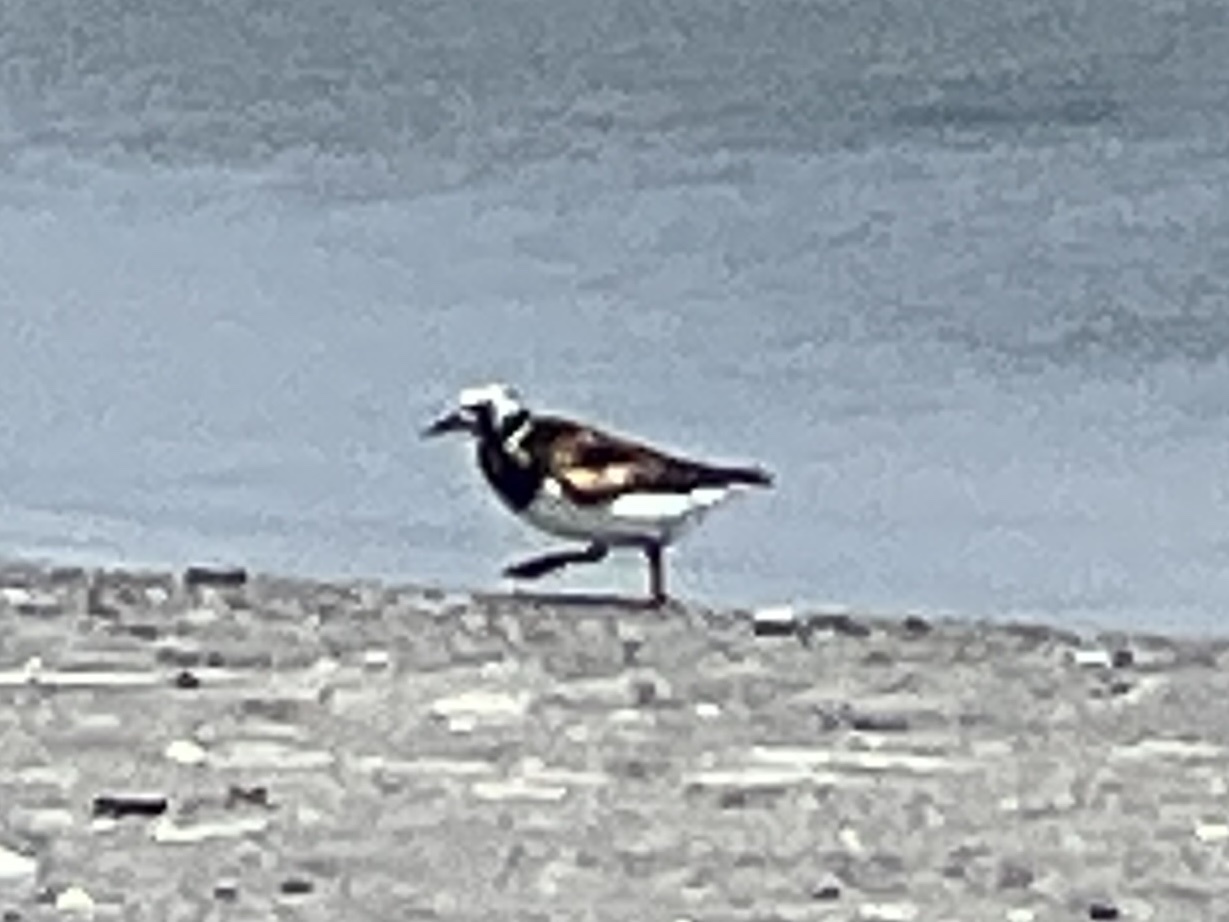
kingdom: Animalia
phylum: Chordata
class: Aves
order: Charadriiformes
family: Scolopacidae
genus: Arenaria
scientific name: Arenaria interpres
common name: Ruddy turnstone
